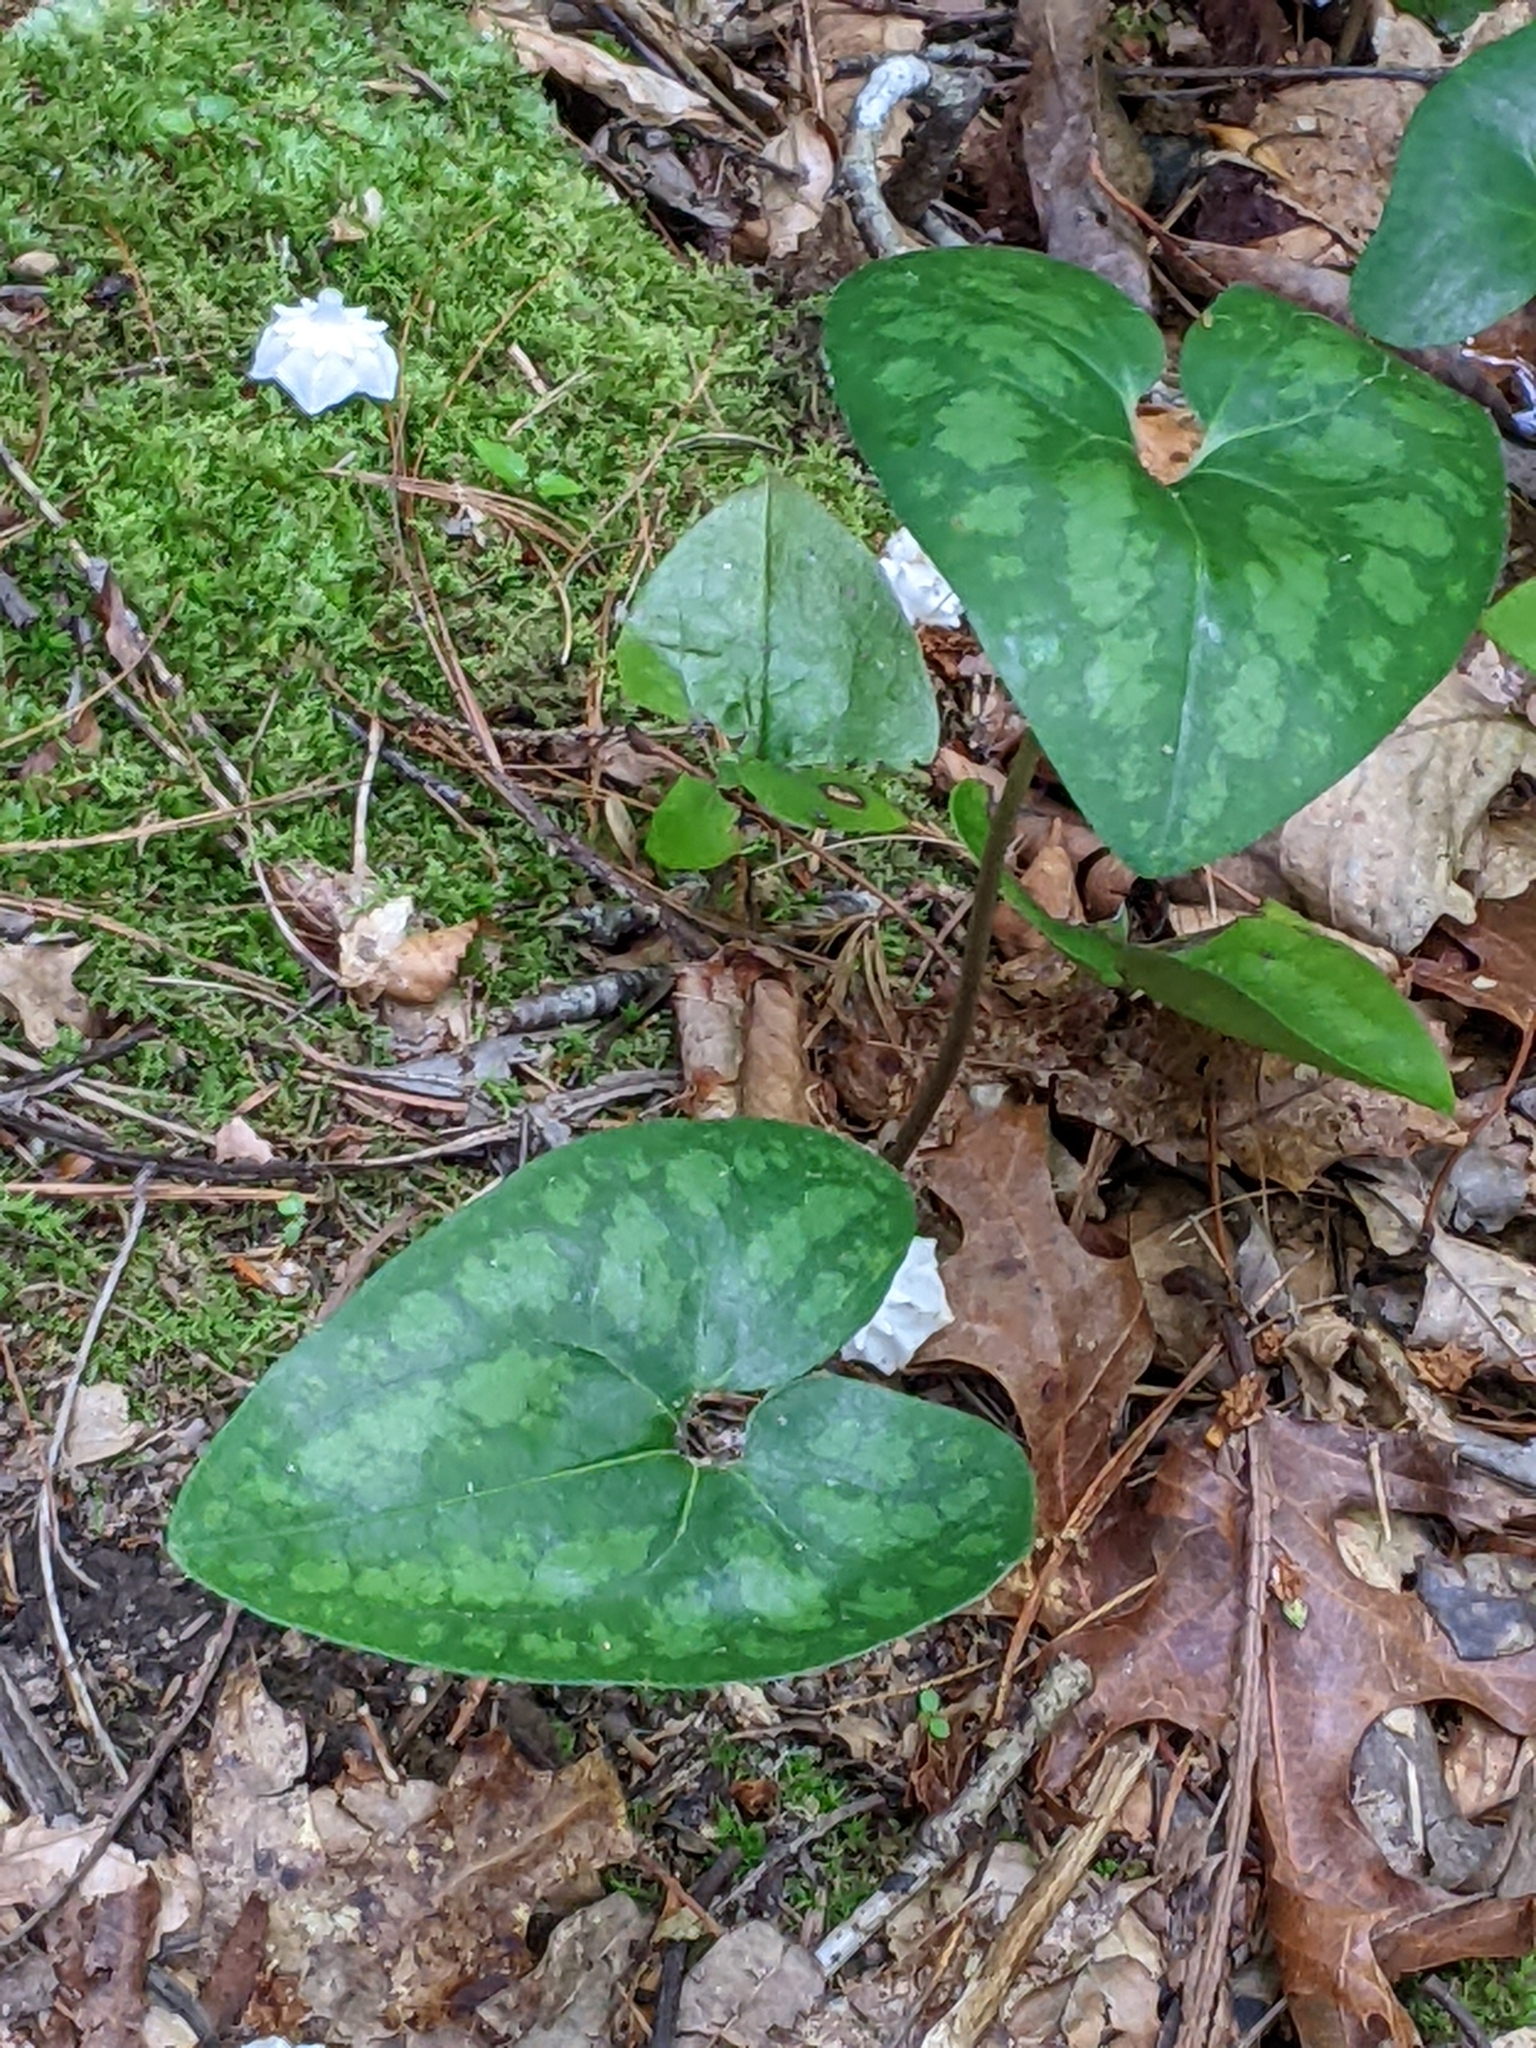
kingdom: Plantae
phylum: Tracheophyta
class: Magnoliopsida
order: Piperales
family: Aristolochiaceae
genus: Hexastylis
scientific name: Hexastylis arifolia
